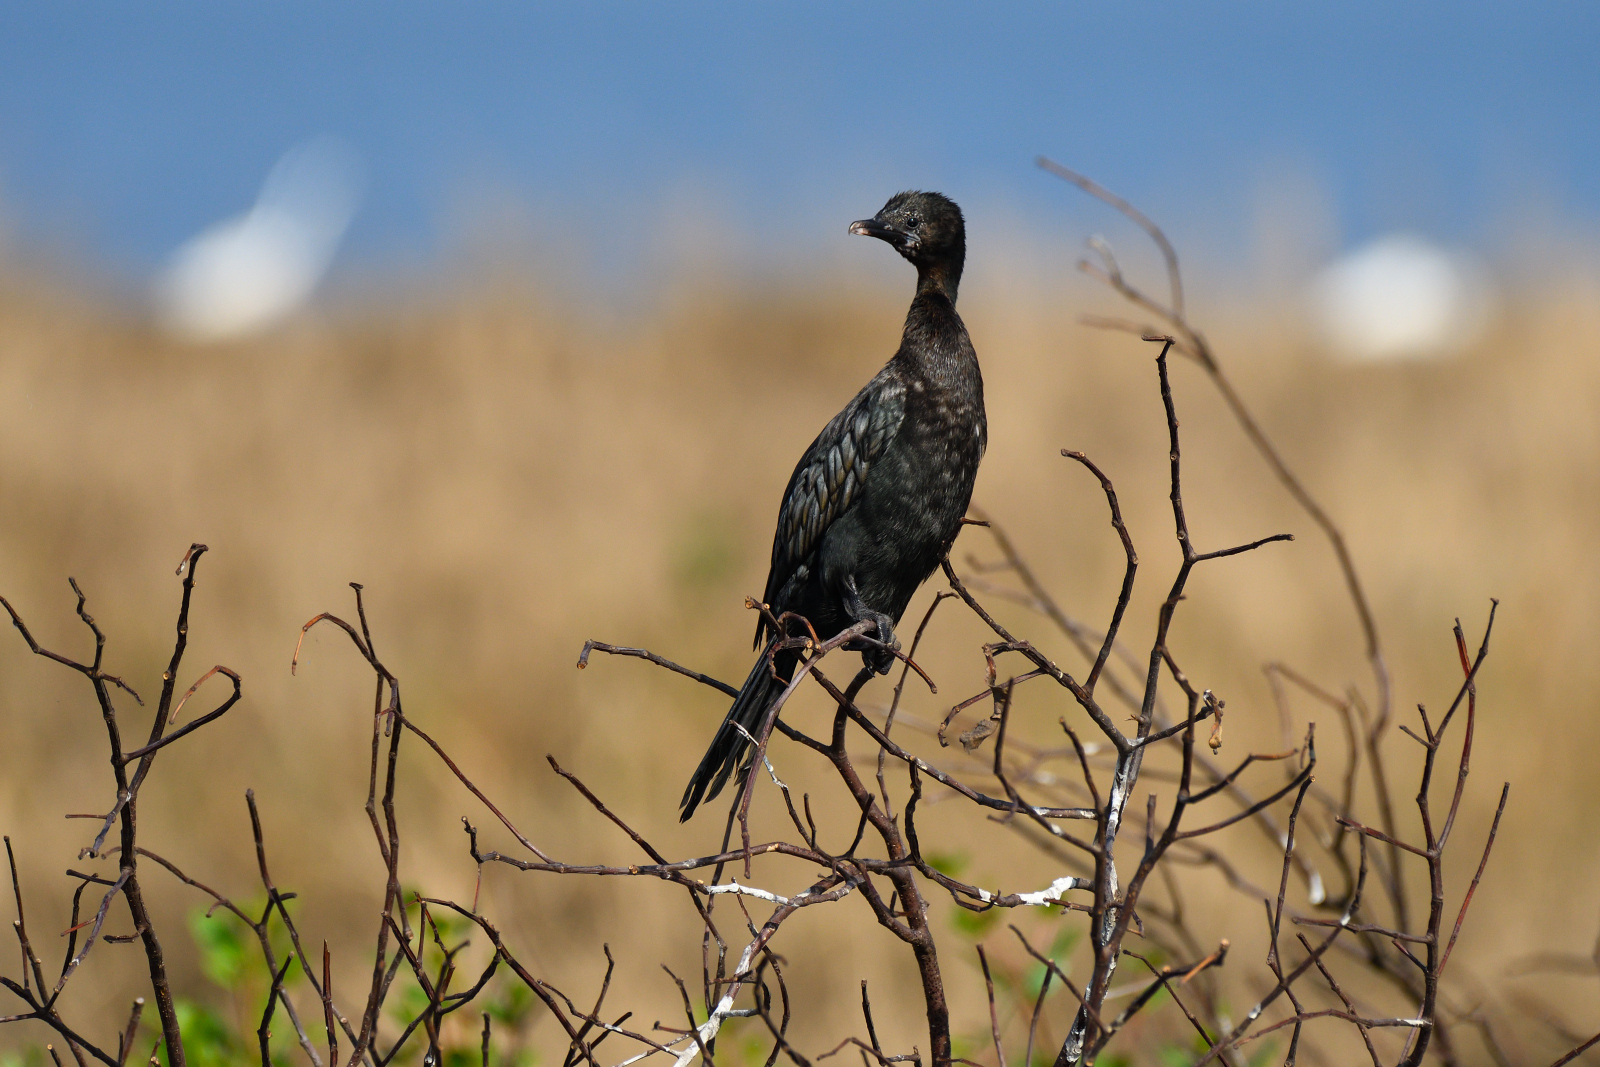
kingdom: Animalia
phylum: Chordata
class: Aves
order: Suliformes
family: Phalacrocoracidae
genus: Microcarbo
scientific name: Microcarbo niger
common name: Little cormorant
